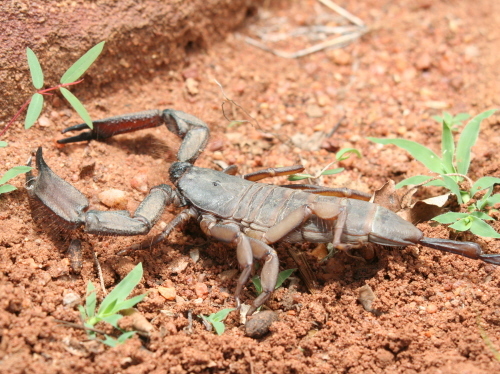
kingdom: Animalia
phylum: Arthropoda
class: Arachnida
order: Scorpiones
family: Hormuridae
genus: Hadogenes
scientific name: Hadogenes troglodytes
